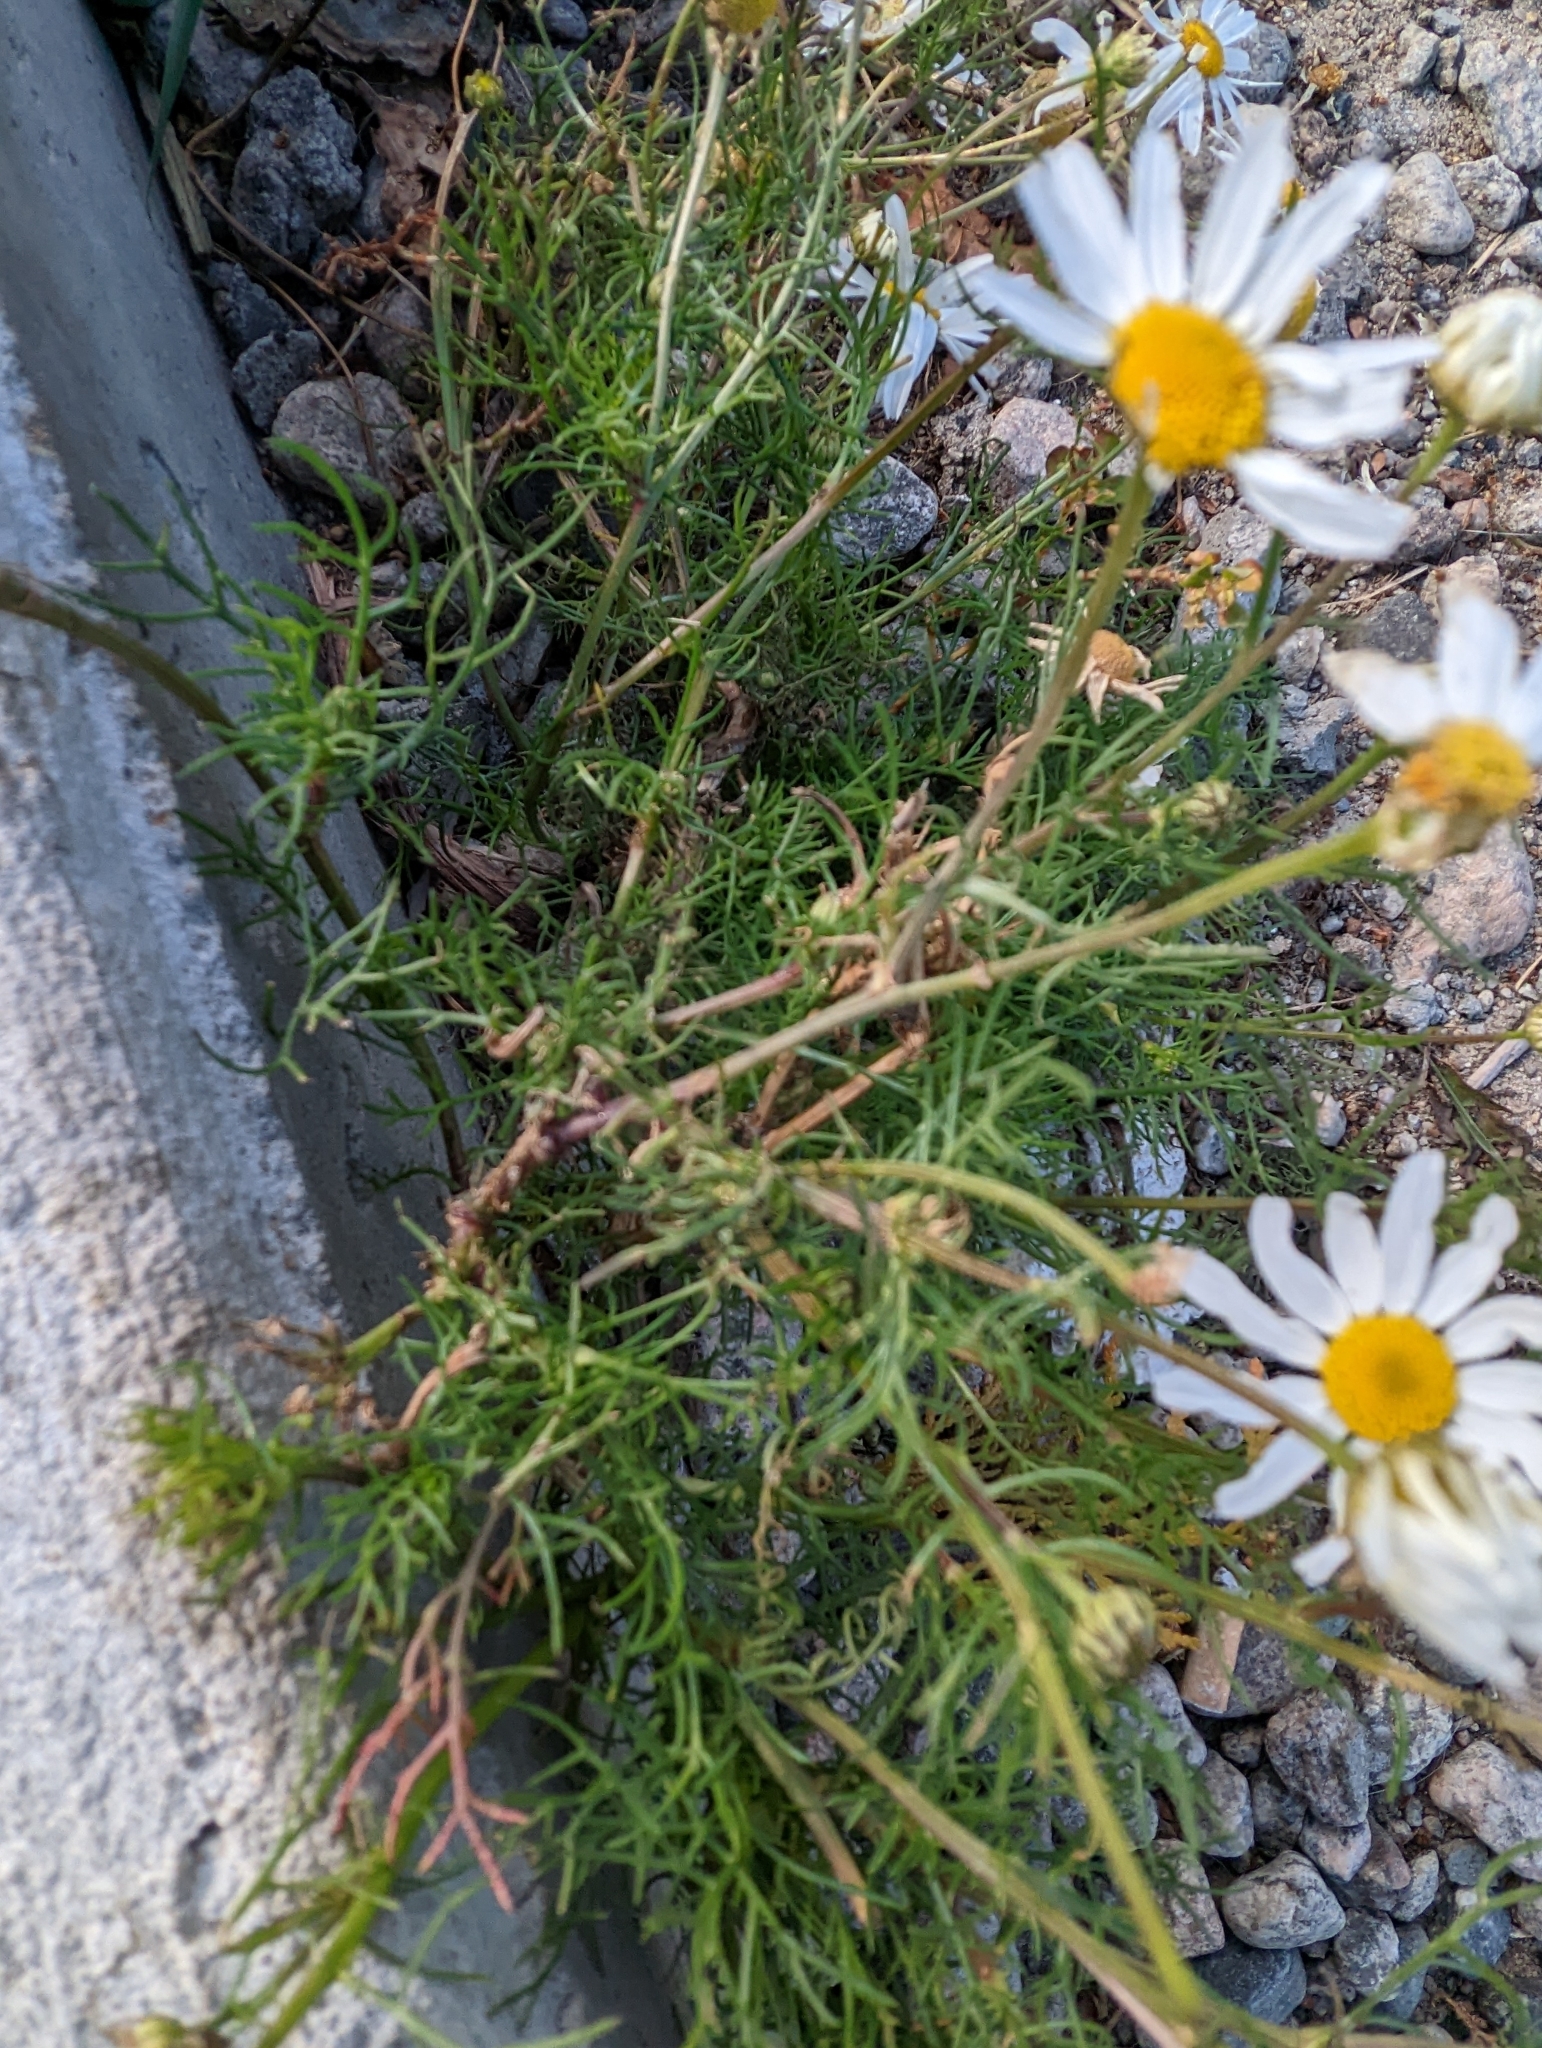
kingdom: Plantae
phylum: Tracheophyta
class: Magnoliopsida
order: Asterales
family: Asteraceae
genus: Tripleurospermum
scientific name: Tripleurospermum inodorum
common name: Scentless mayweed
